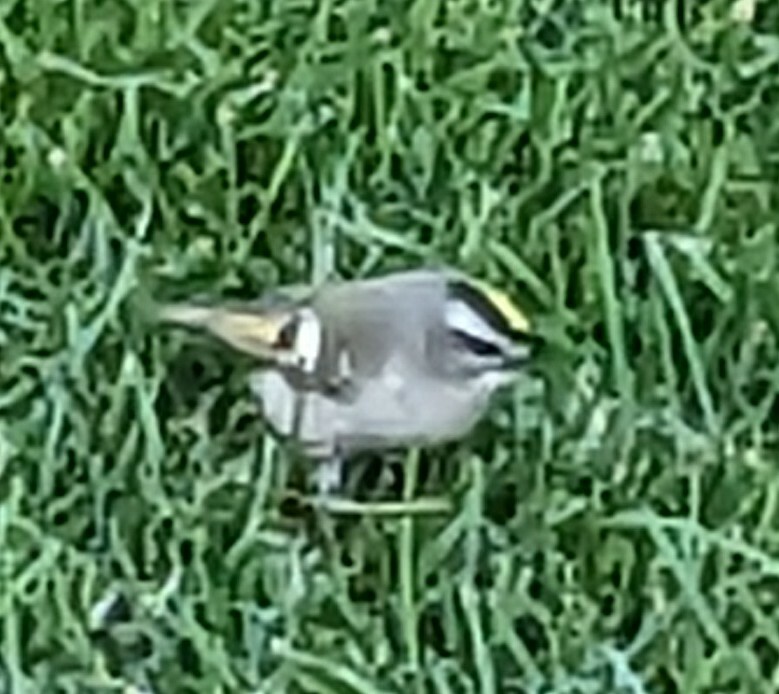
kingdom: Animalia
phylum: Chordata
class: Aves
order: Passeriformes
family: Regulidae
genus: Regulus
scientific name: Regulus satrapa
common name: Golden-crowned kinglet
